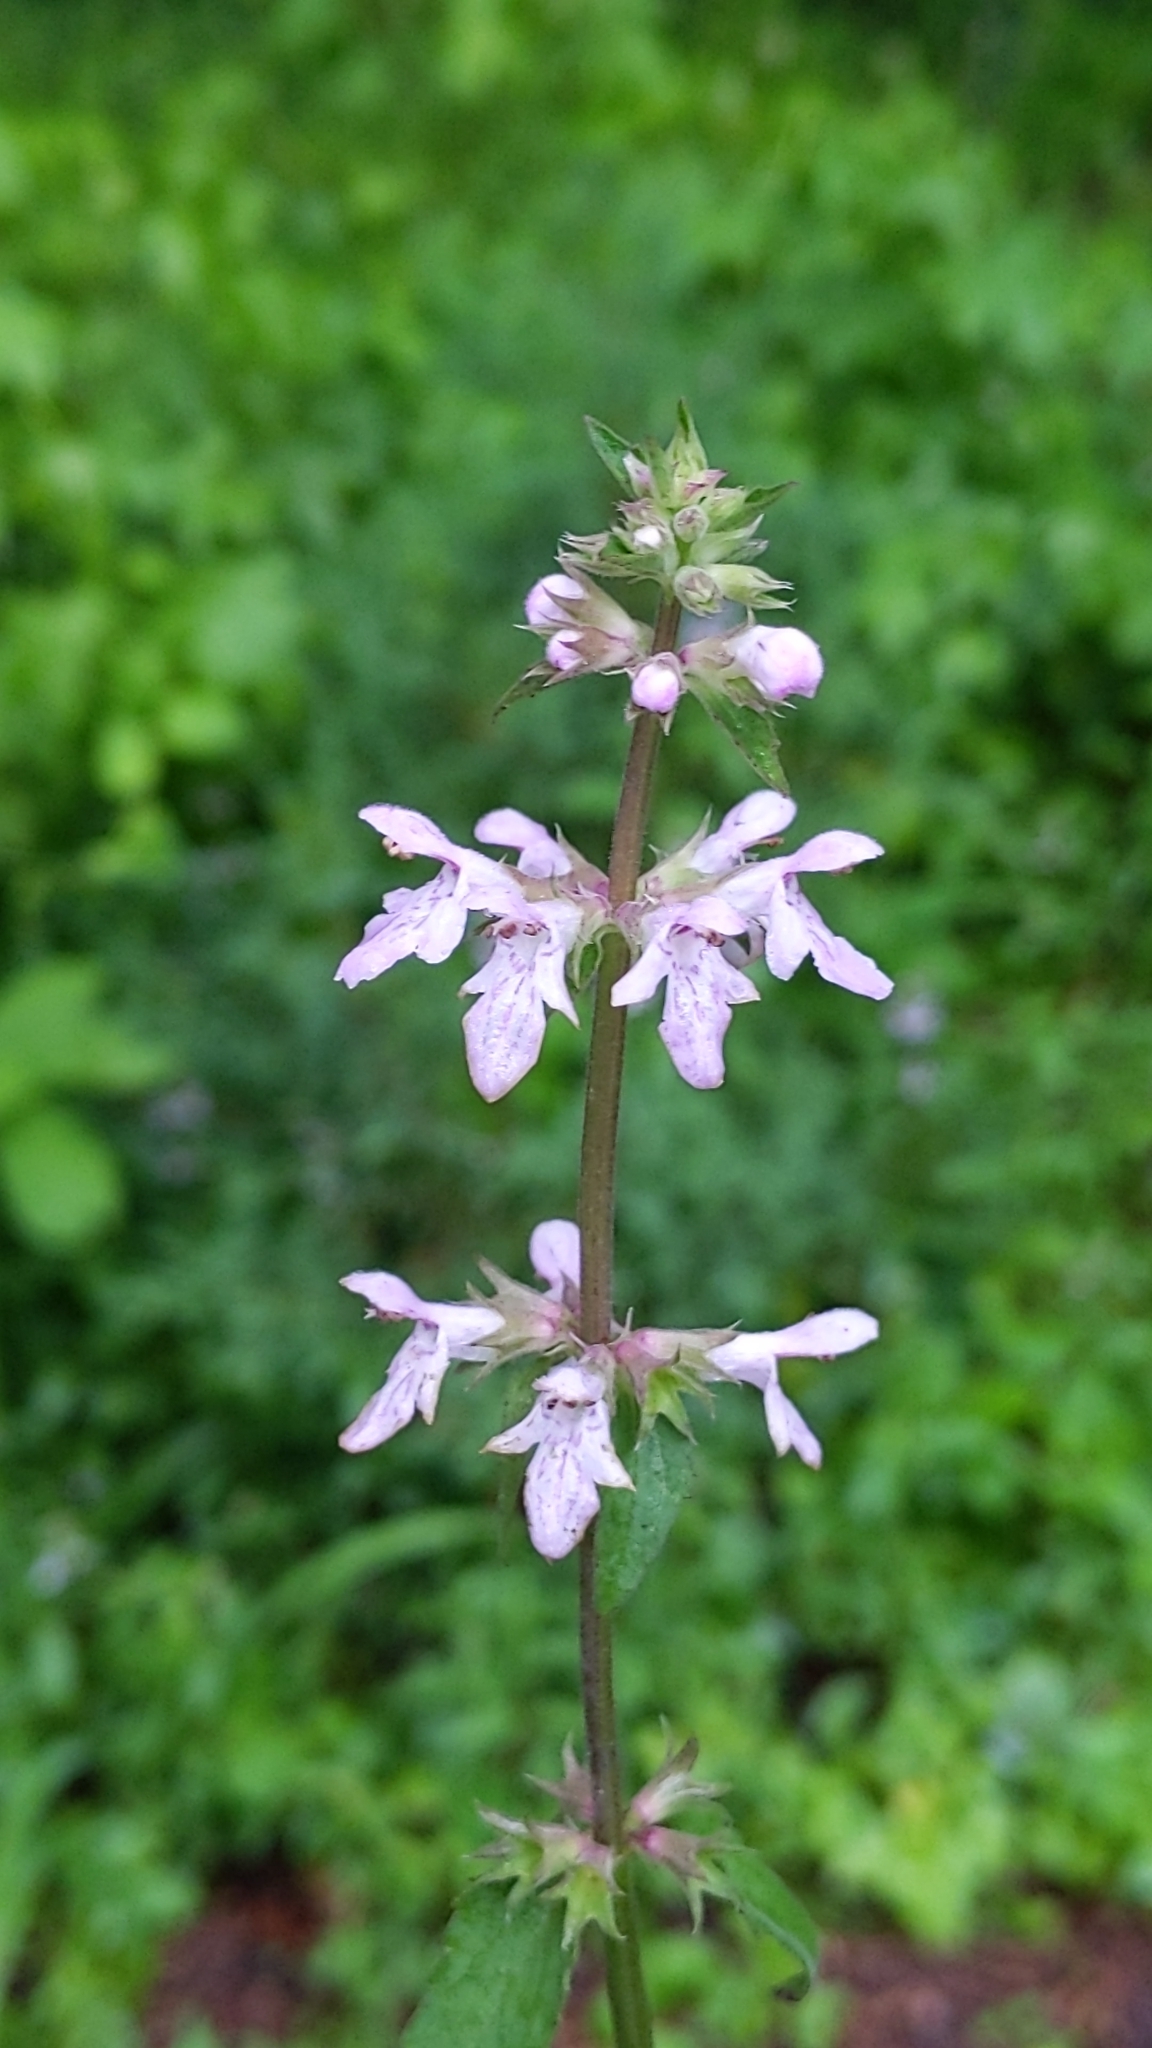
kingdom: Plantae
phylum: Tracheophyta
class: Magnoliopsida
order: Lamiales
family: Lamiaceae
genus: Stachys
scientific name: Stachys floridana
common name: Florida betony
